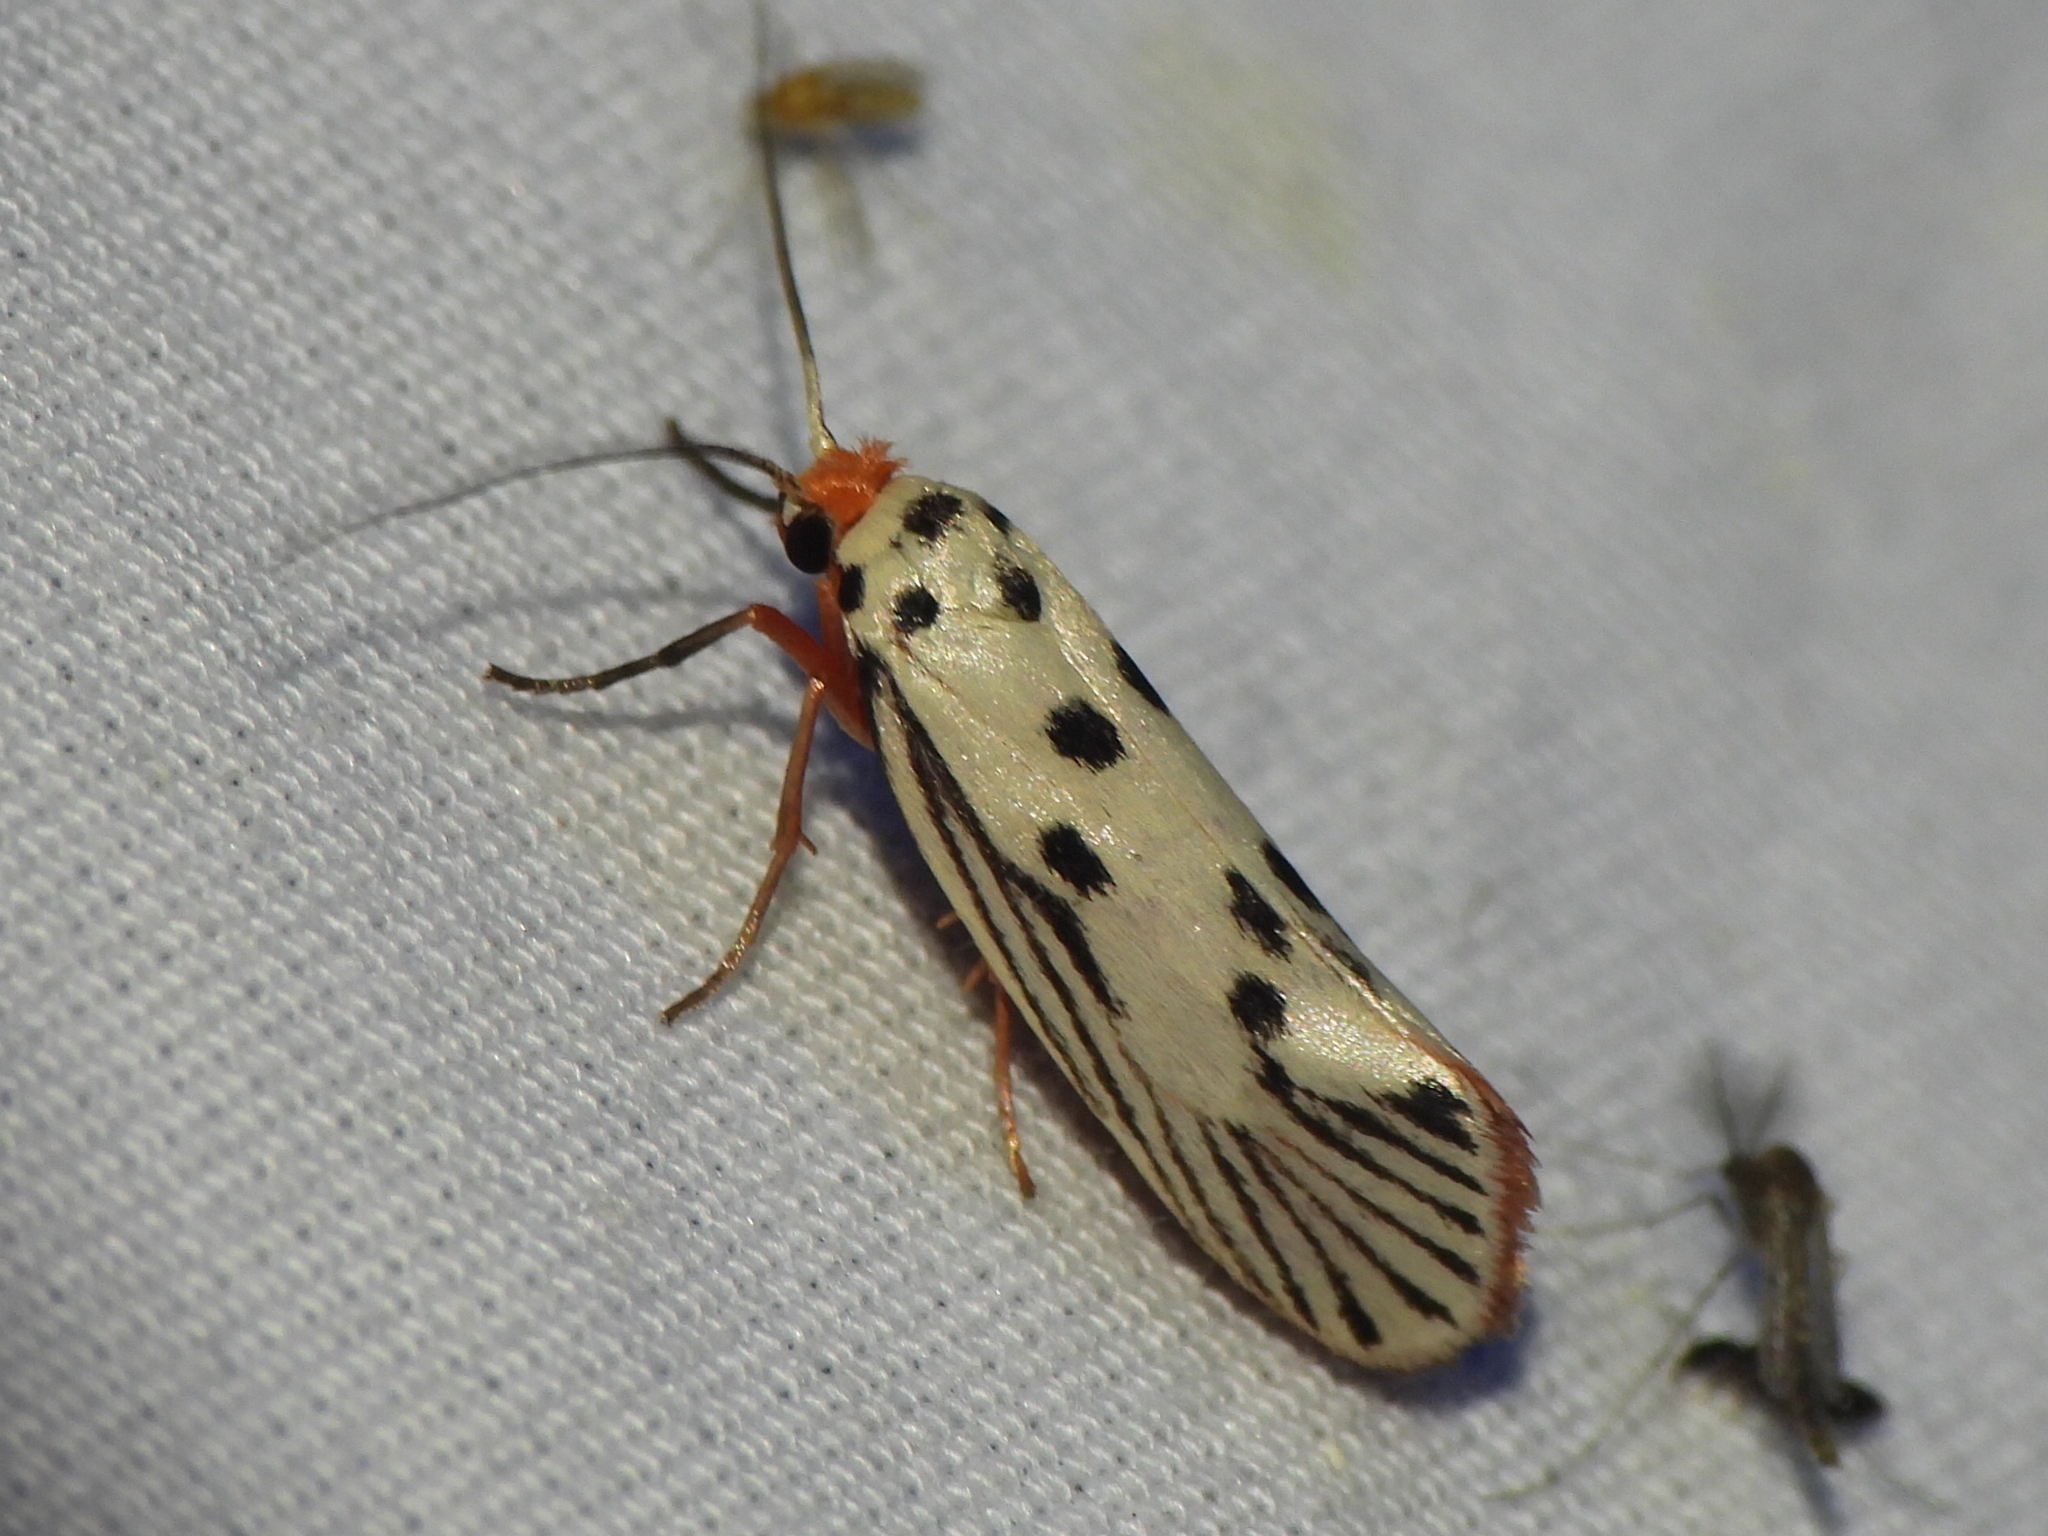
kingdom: Animalia
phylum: Arthropoda
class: Insecta
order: Lepidoptera
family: Lacturidae
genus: Lactura
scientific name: Lactura
